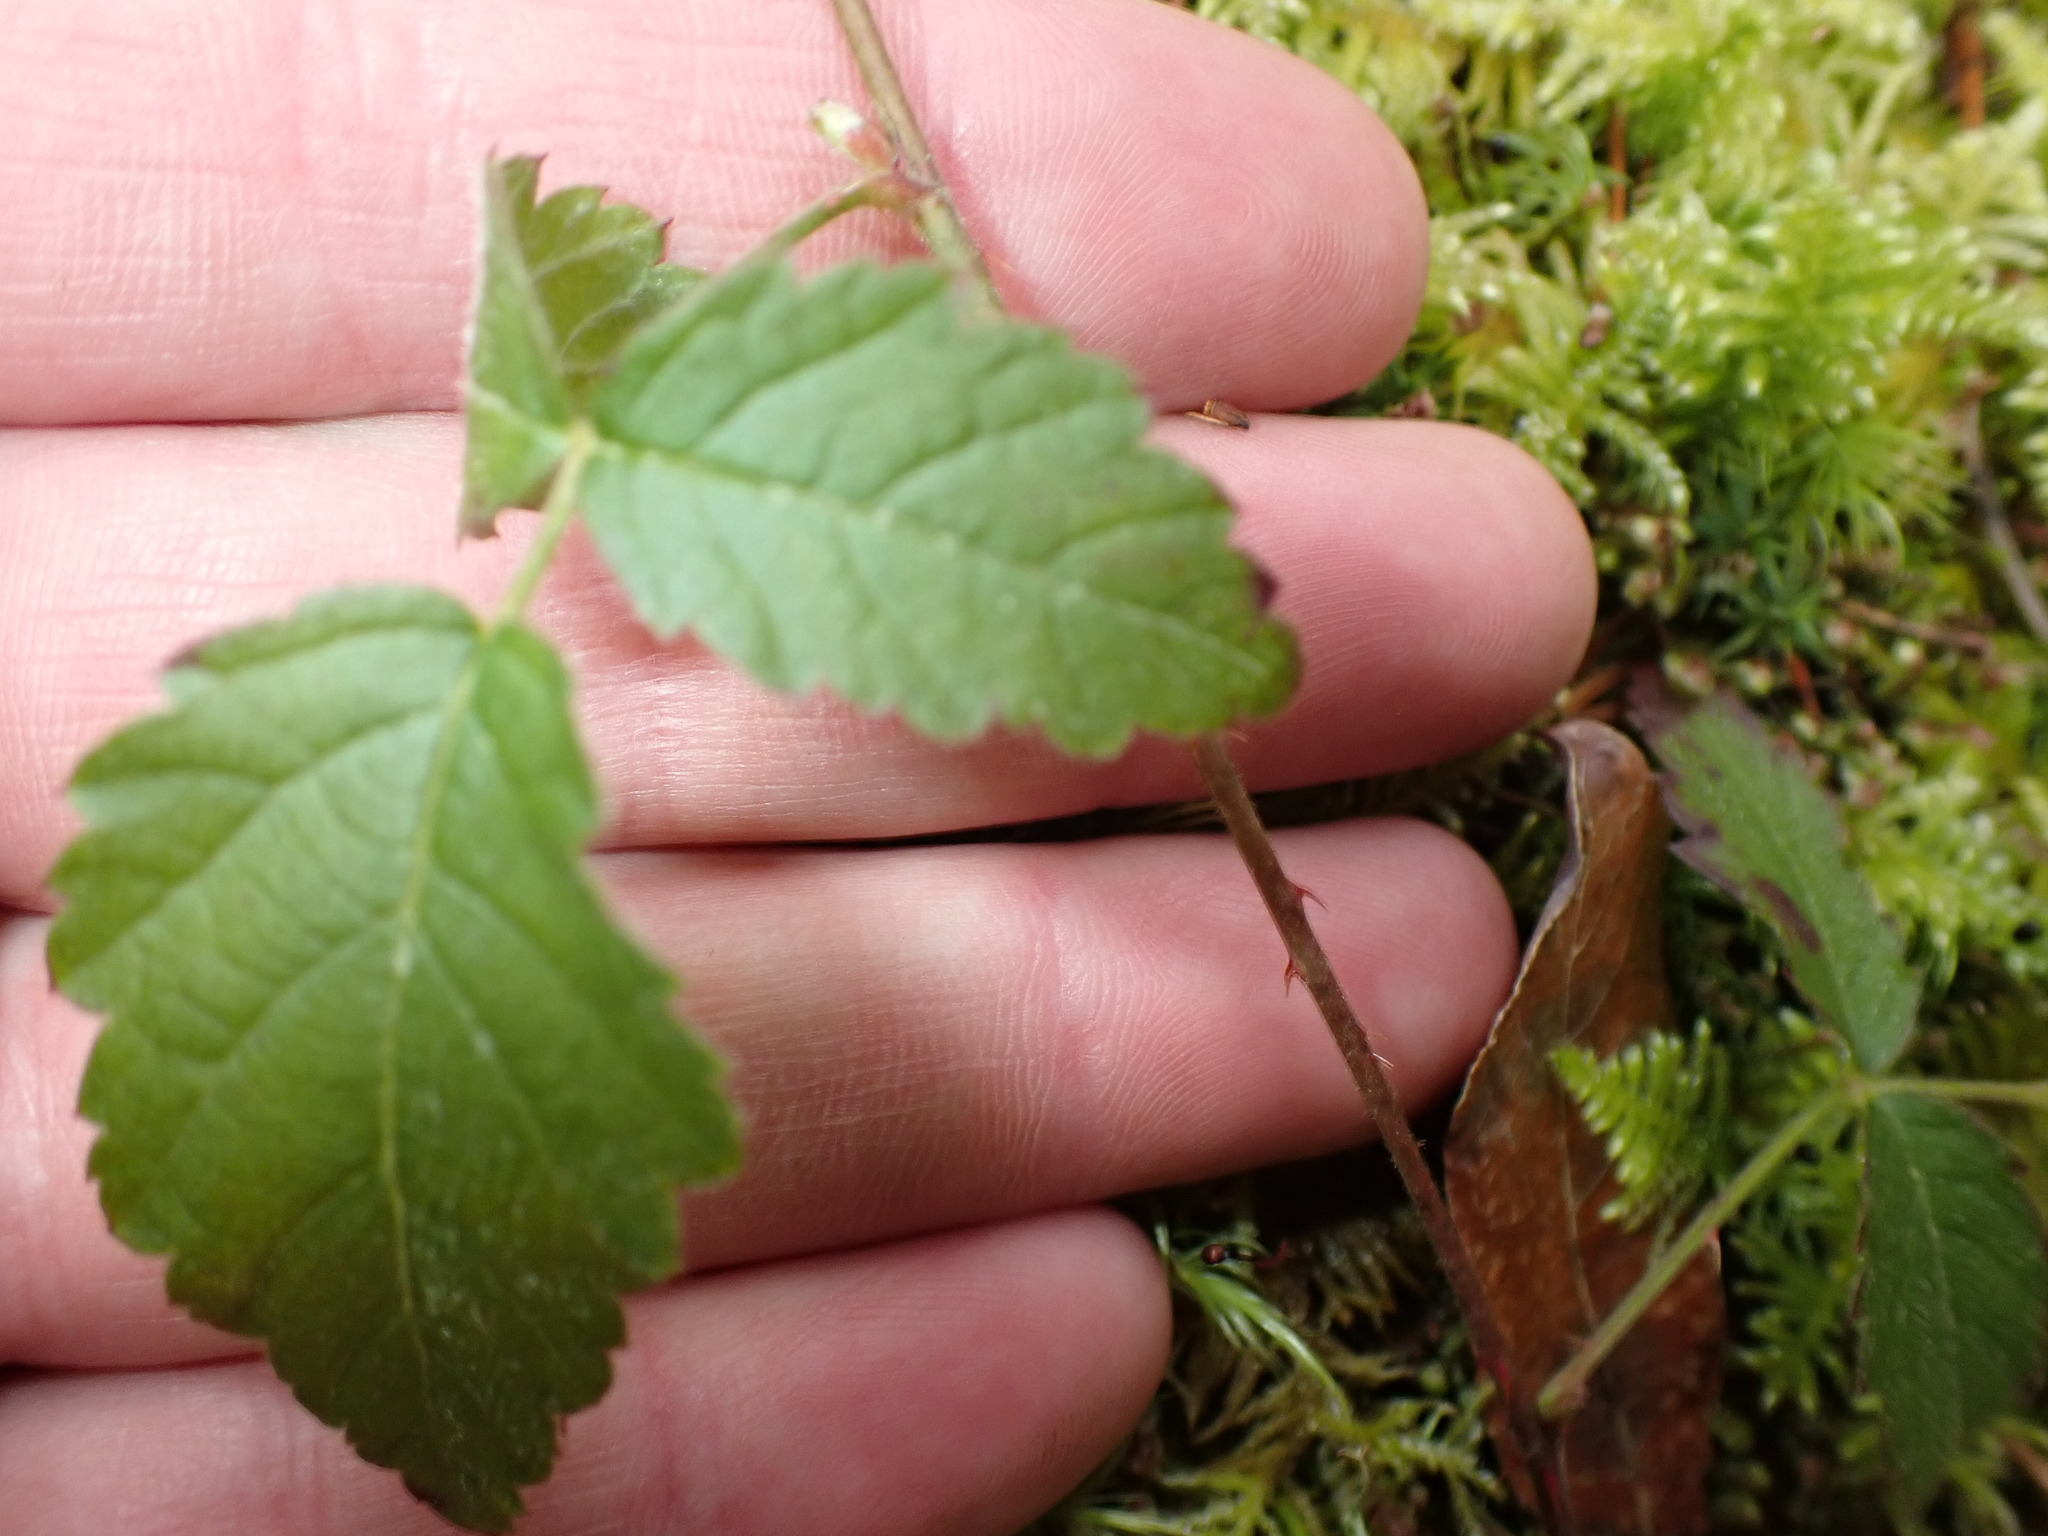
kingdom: Plantae
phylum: Tracheophyta
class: Magnoliopsida
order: Rosales
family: Rosaceae
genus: Rubus
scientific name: Rubus ursinus
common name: Pacific blackberry
